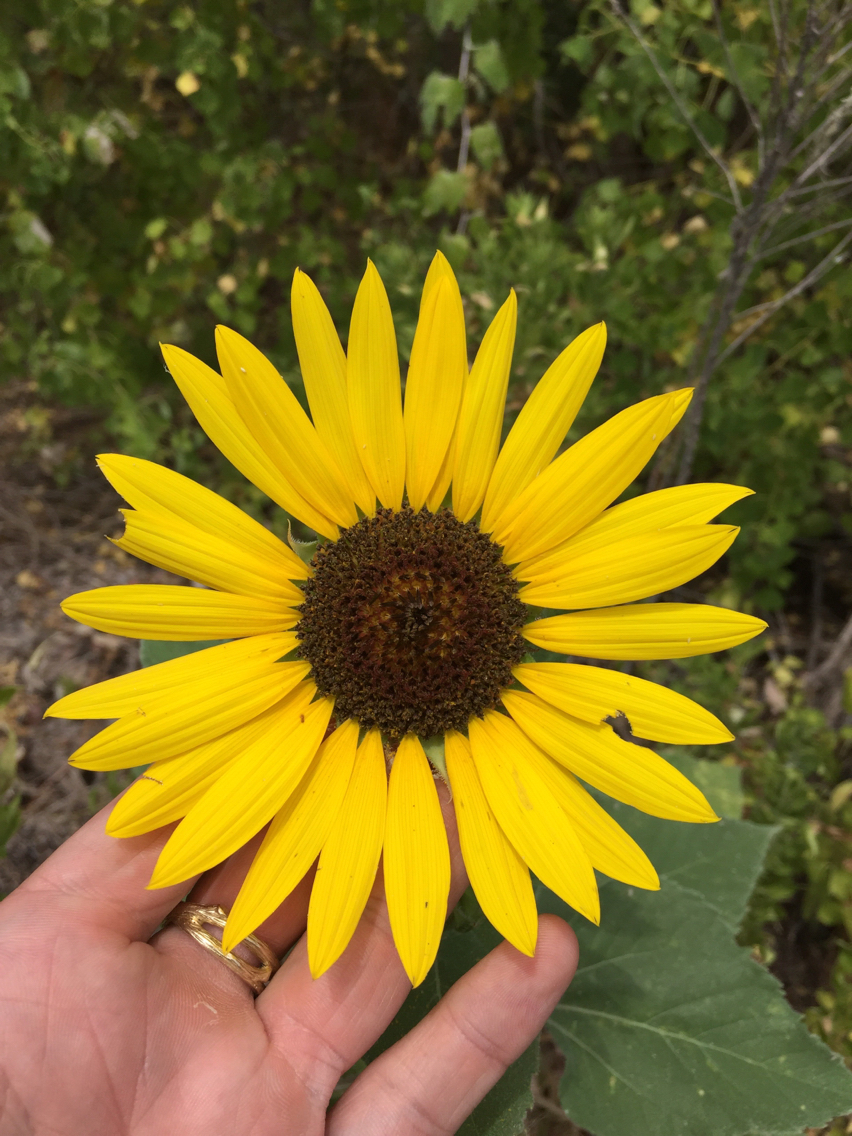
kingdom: Plantae
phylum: Tracheophyta
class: Magnoliopsida
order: Asterales
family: Asteraceae
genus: Helianthus
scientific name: Helianthus annuus
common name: Sunflower
